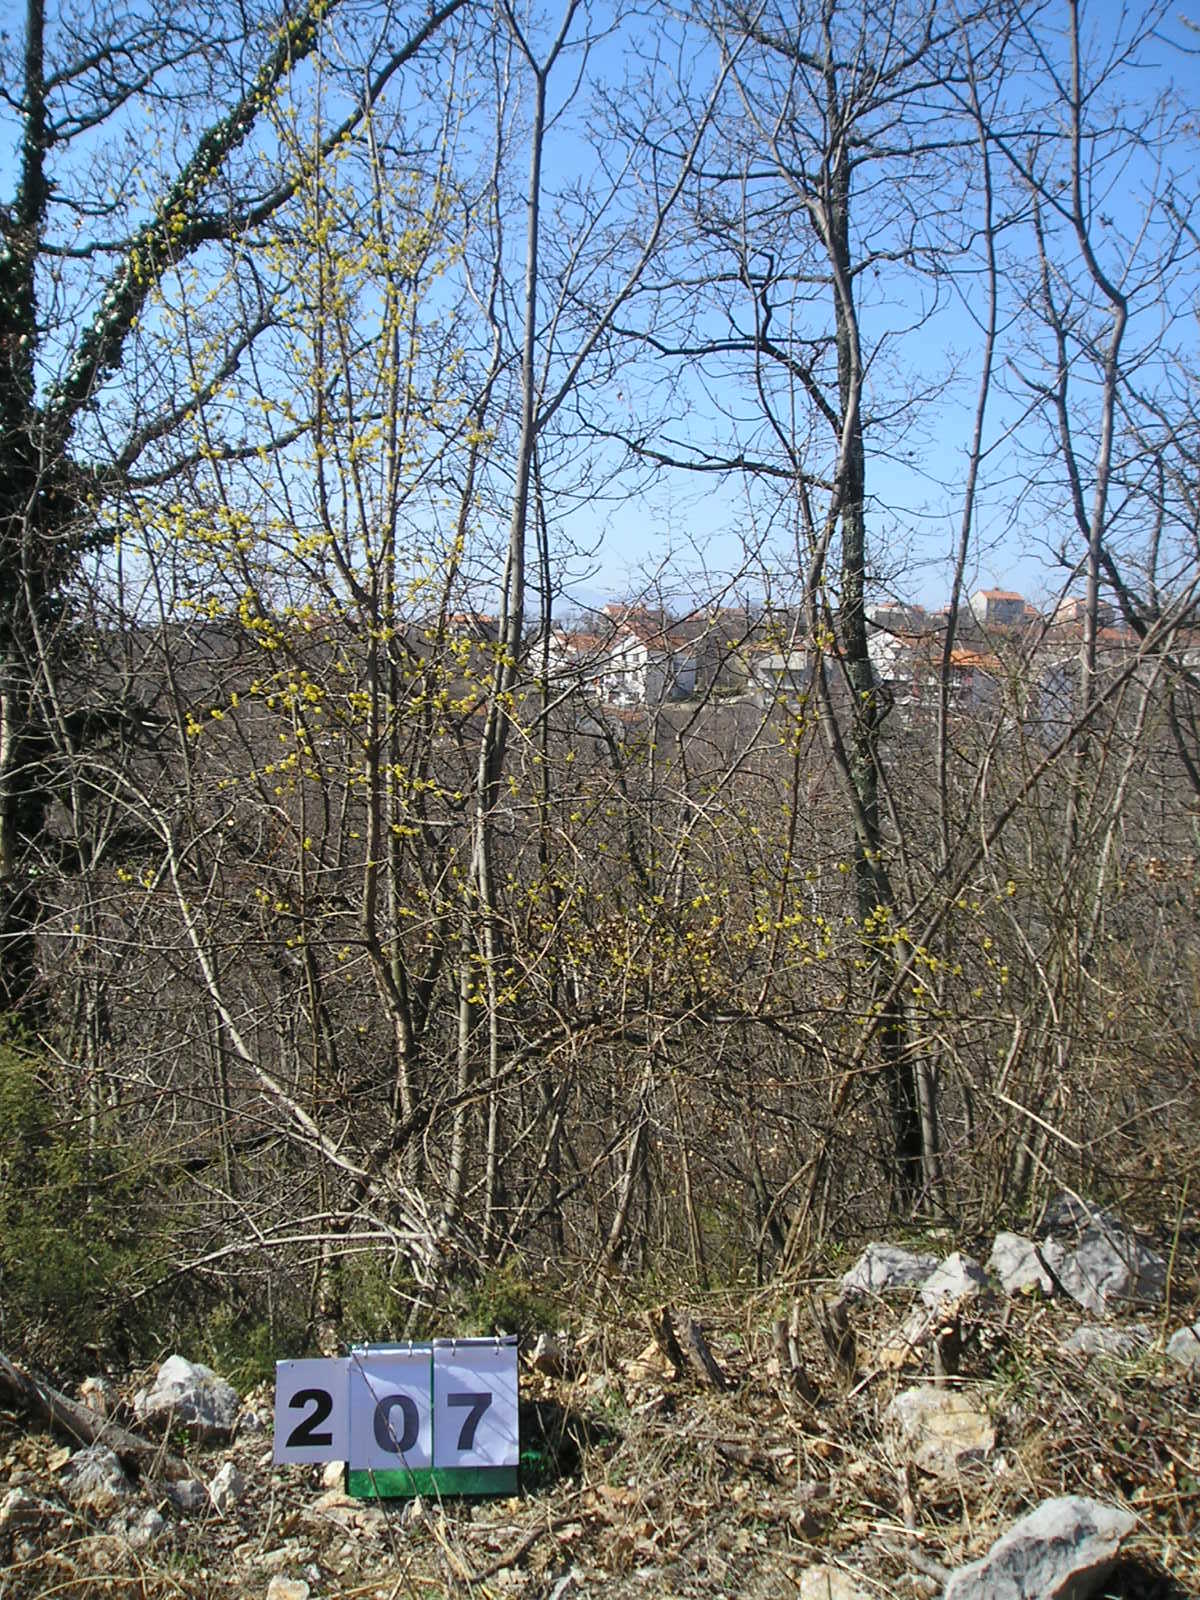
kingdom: Plantae
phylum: Tracheophyta
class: Magnoliopsida
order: Cornales
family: Cornaceae
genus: Cornus
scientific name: Cornus mas
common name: Cornelian-cherry
